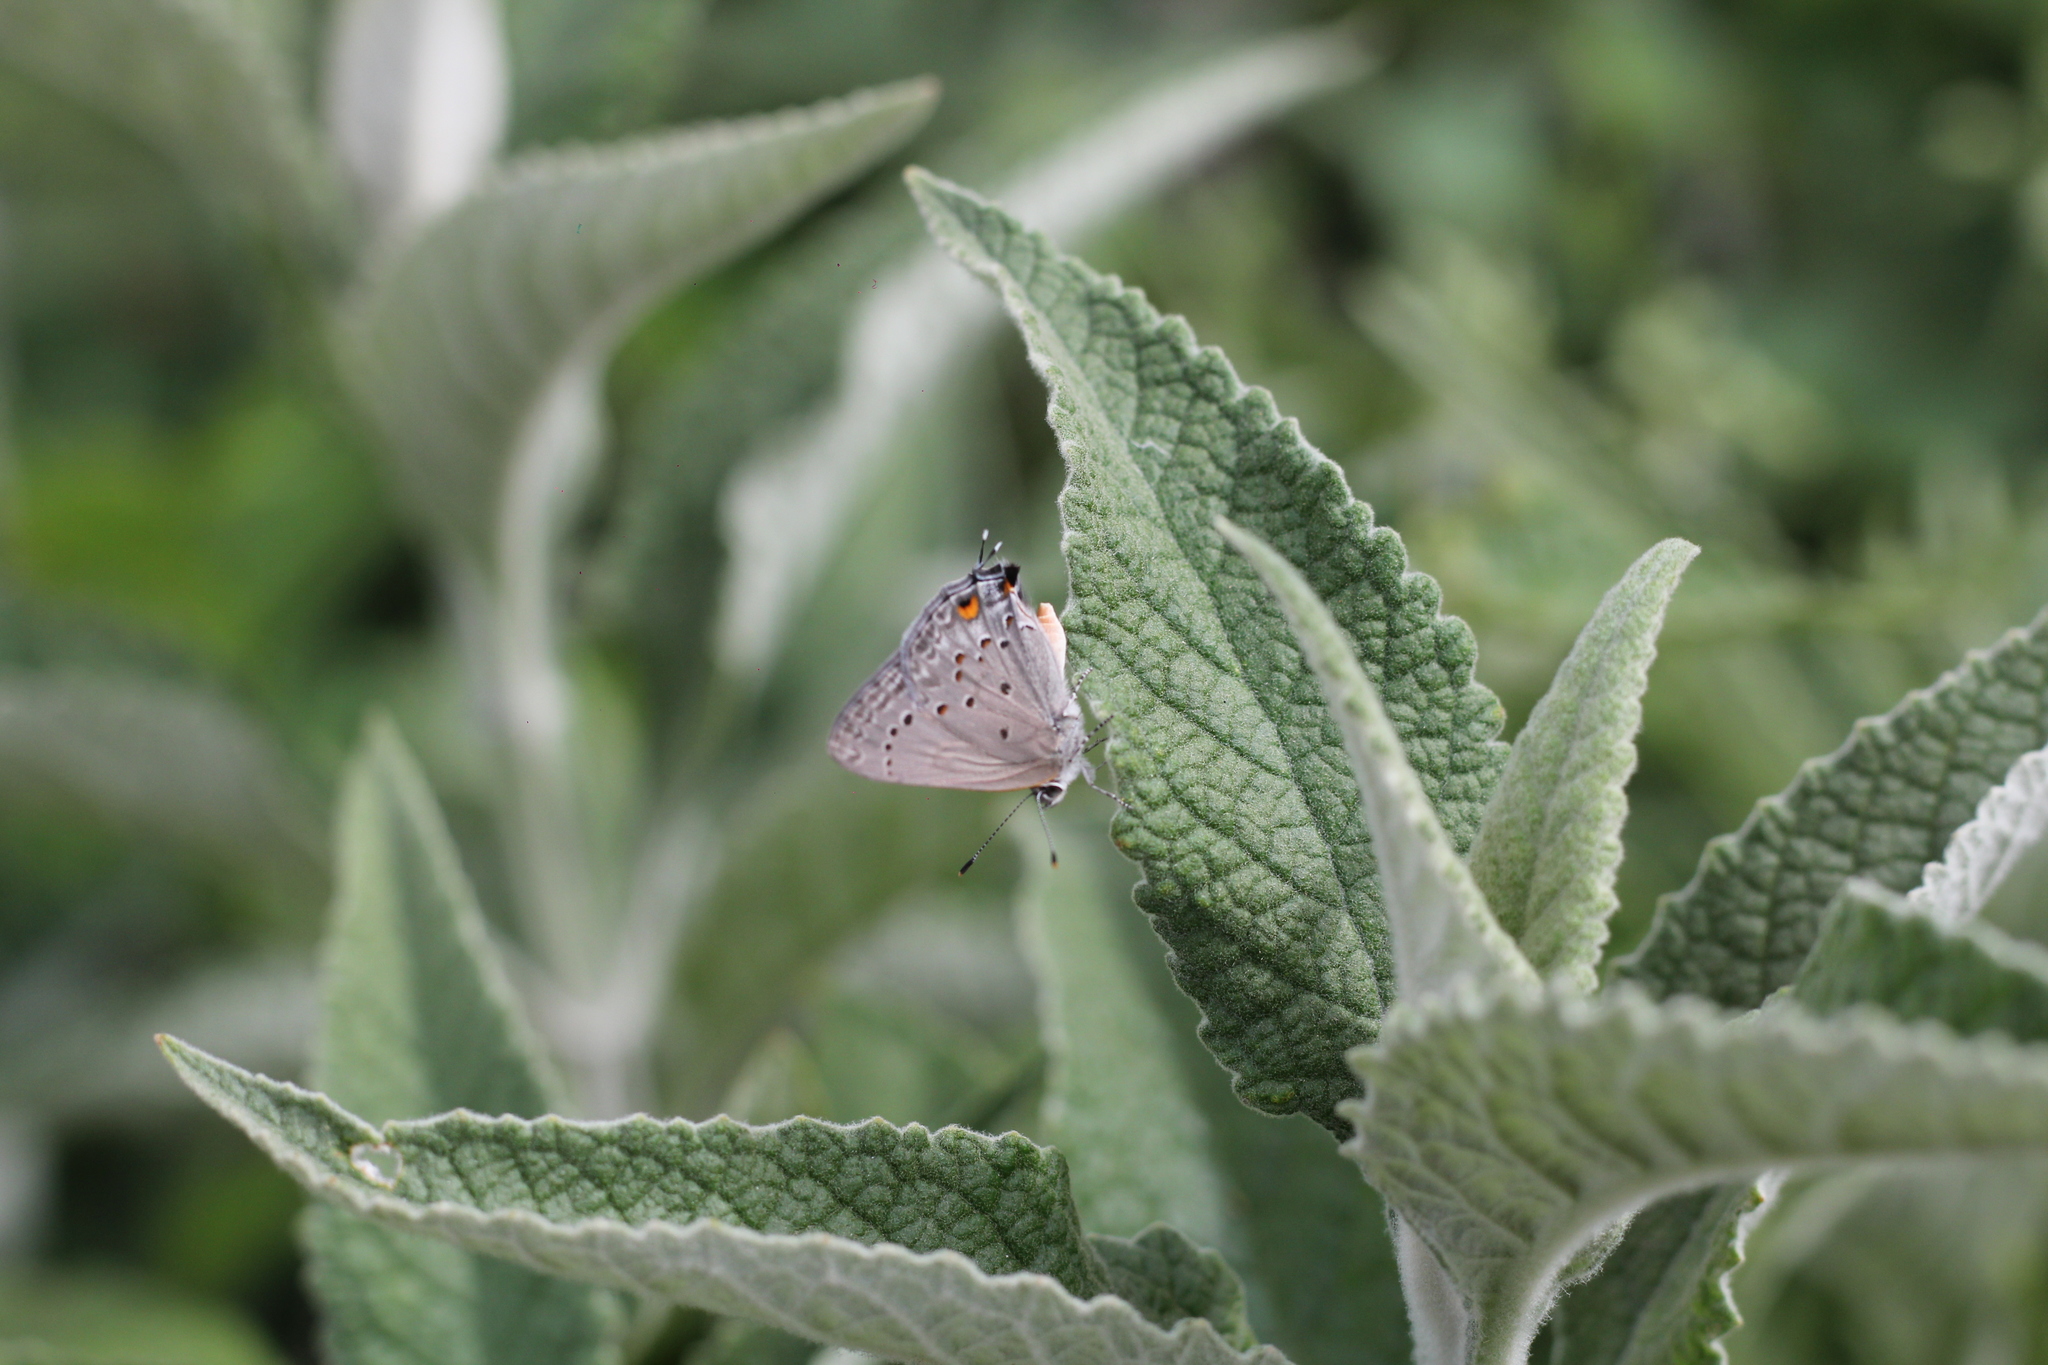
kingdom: Animalia
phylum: Arthropoda
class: Insecta
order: Lepidoptera
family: Lycaenidae
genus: Strymon
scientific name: Strymon eurytulus
